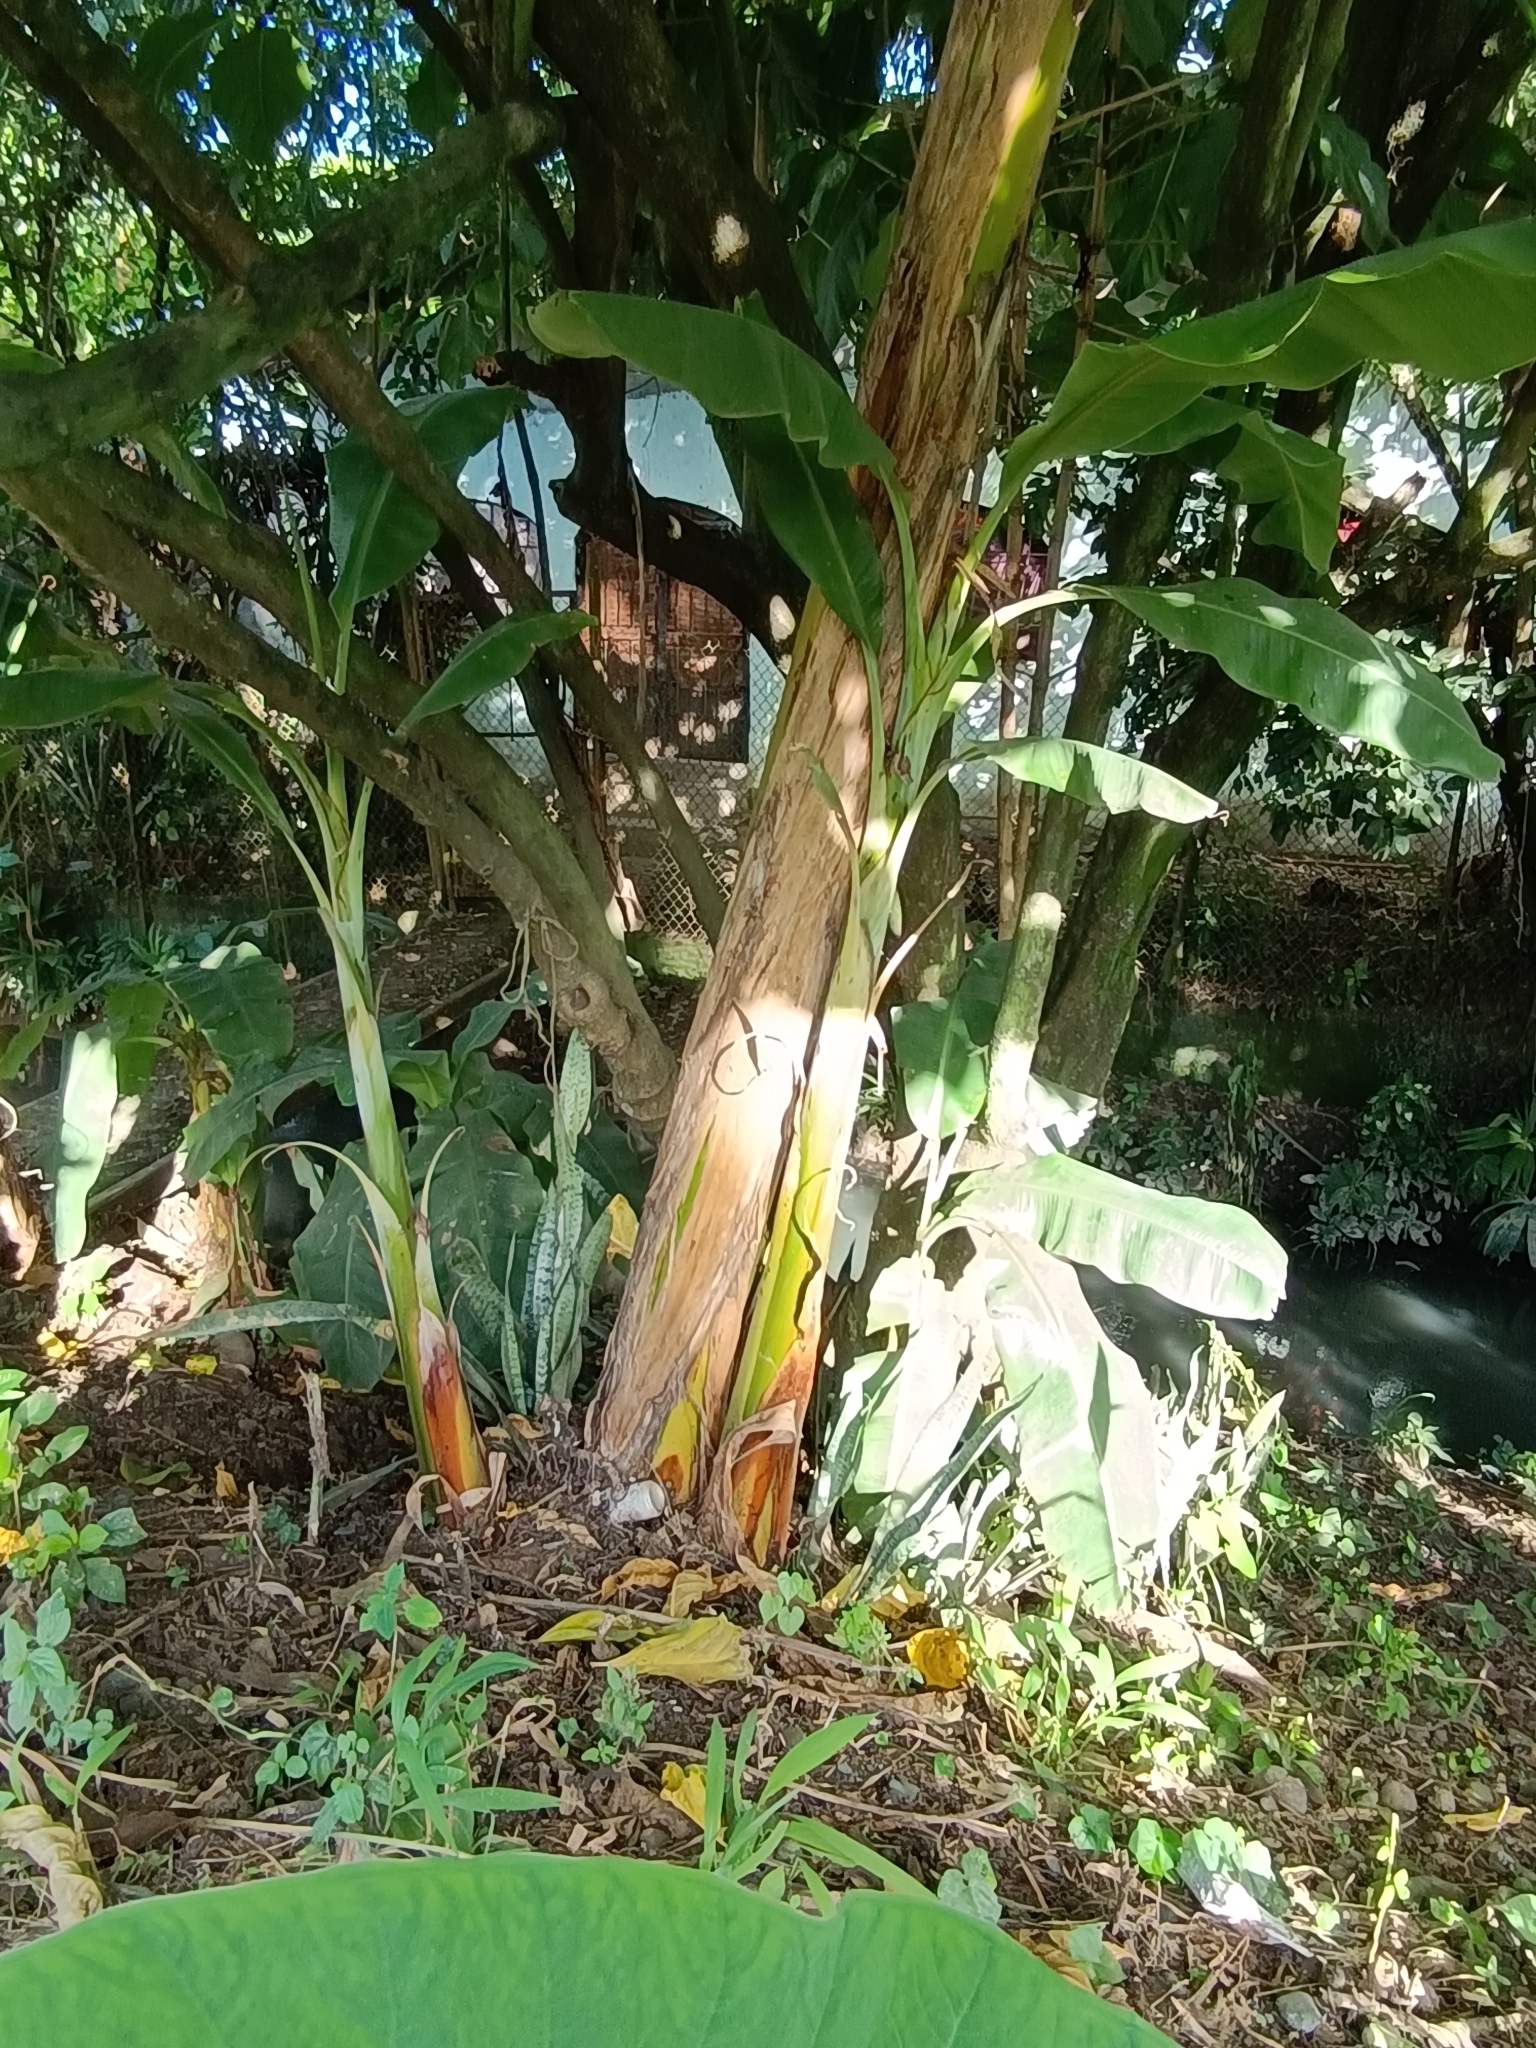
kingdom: Plantae
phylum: Tracheophyta
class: Liliopsida
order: Zingiberales
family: Musaceae
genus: Musa
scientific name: Musa paradisiaca
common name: French plantain
